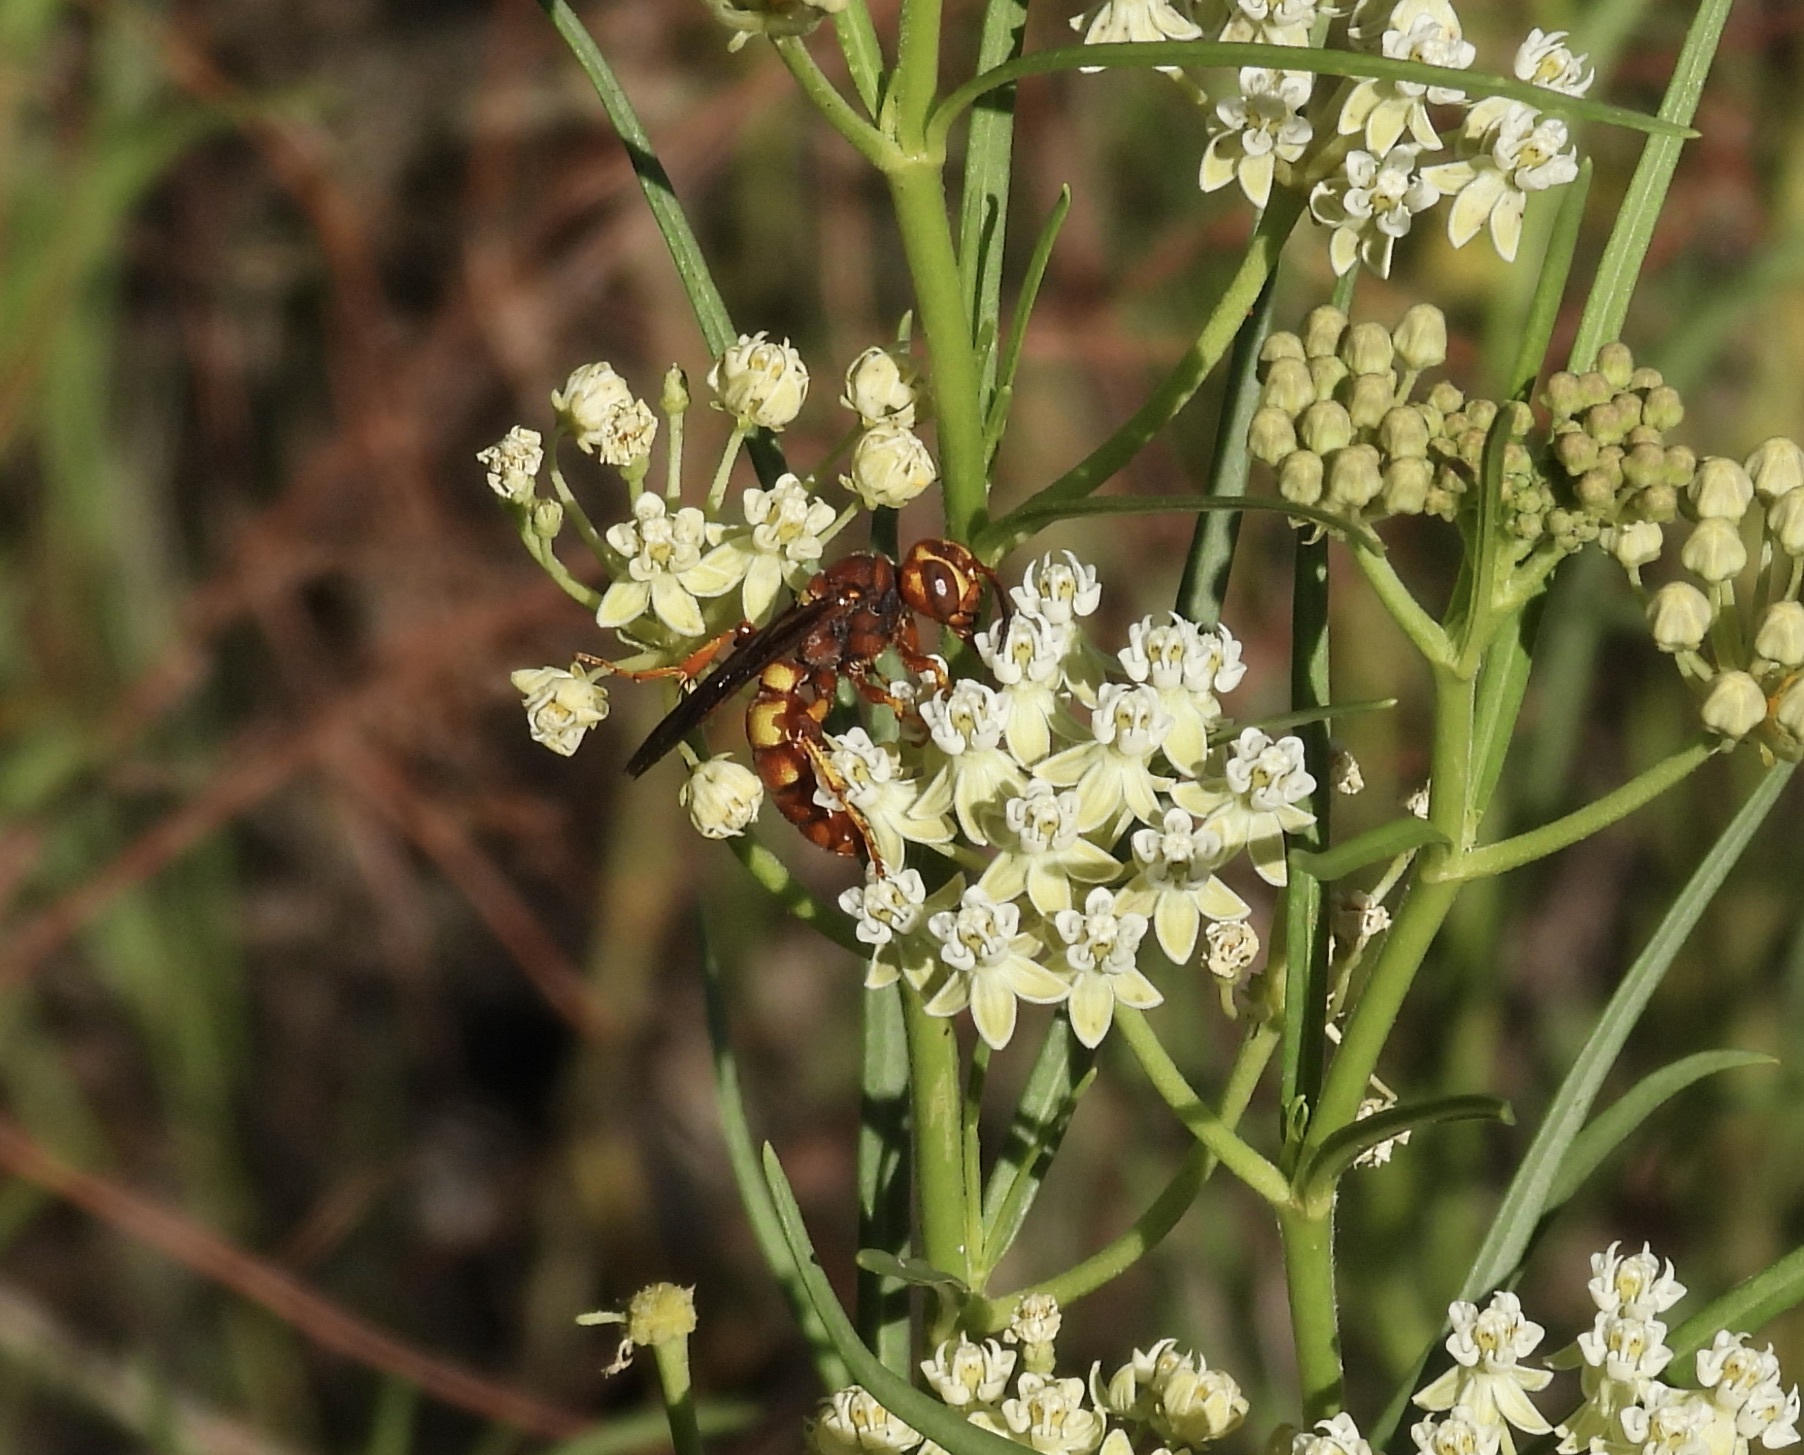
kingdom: Animalia
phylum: Arthropoda
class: Insecta
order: Hymenoptera
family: Crabronidae
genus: Cerceris
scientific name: Cerceris bicornuta
